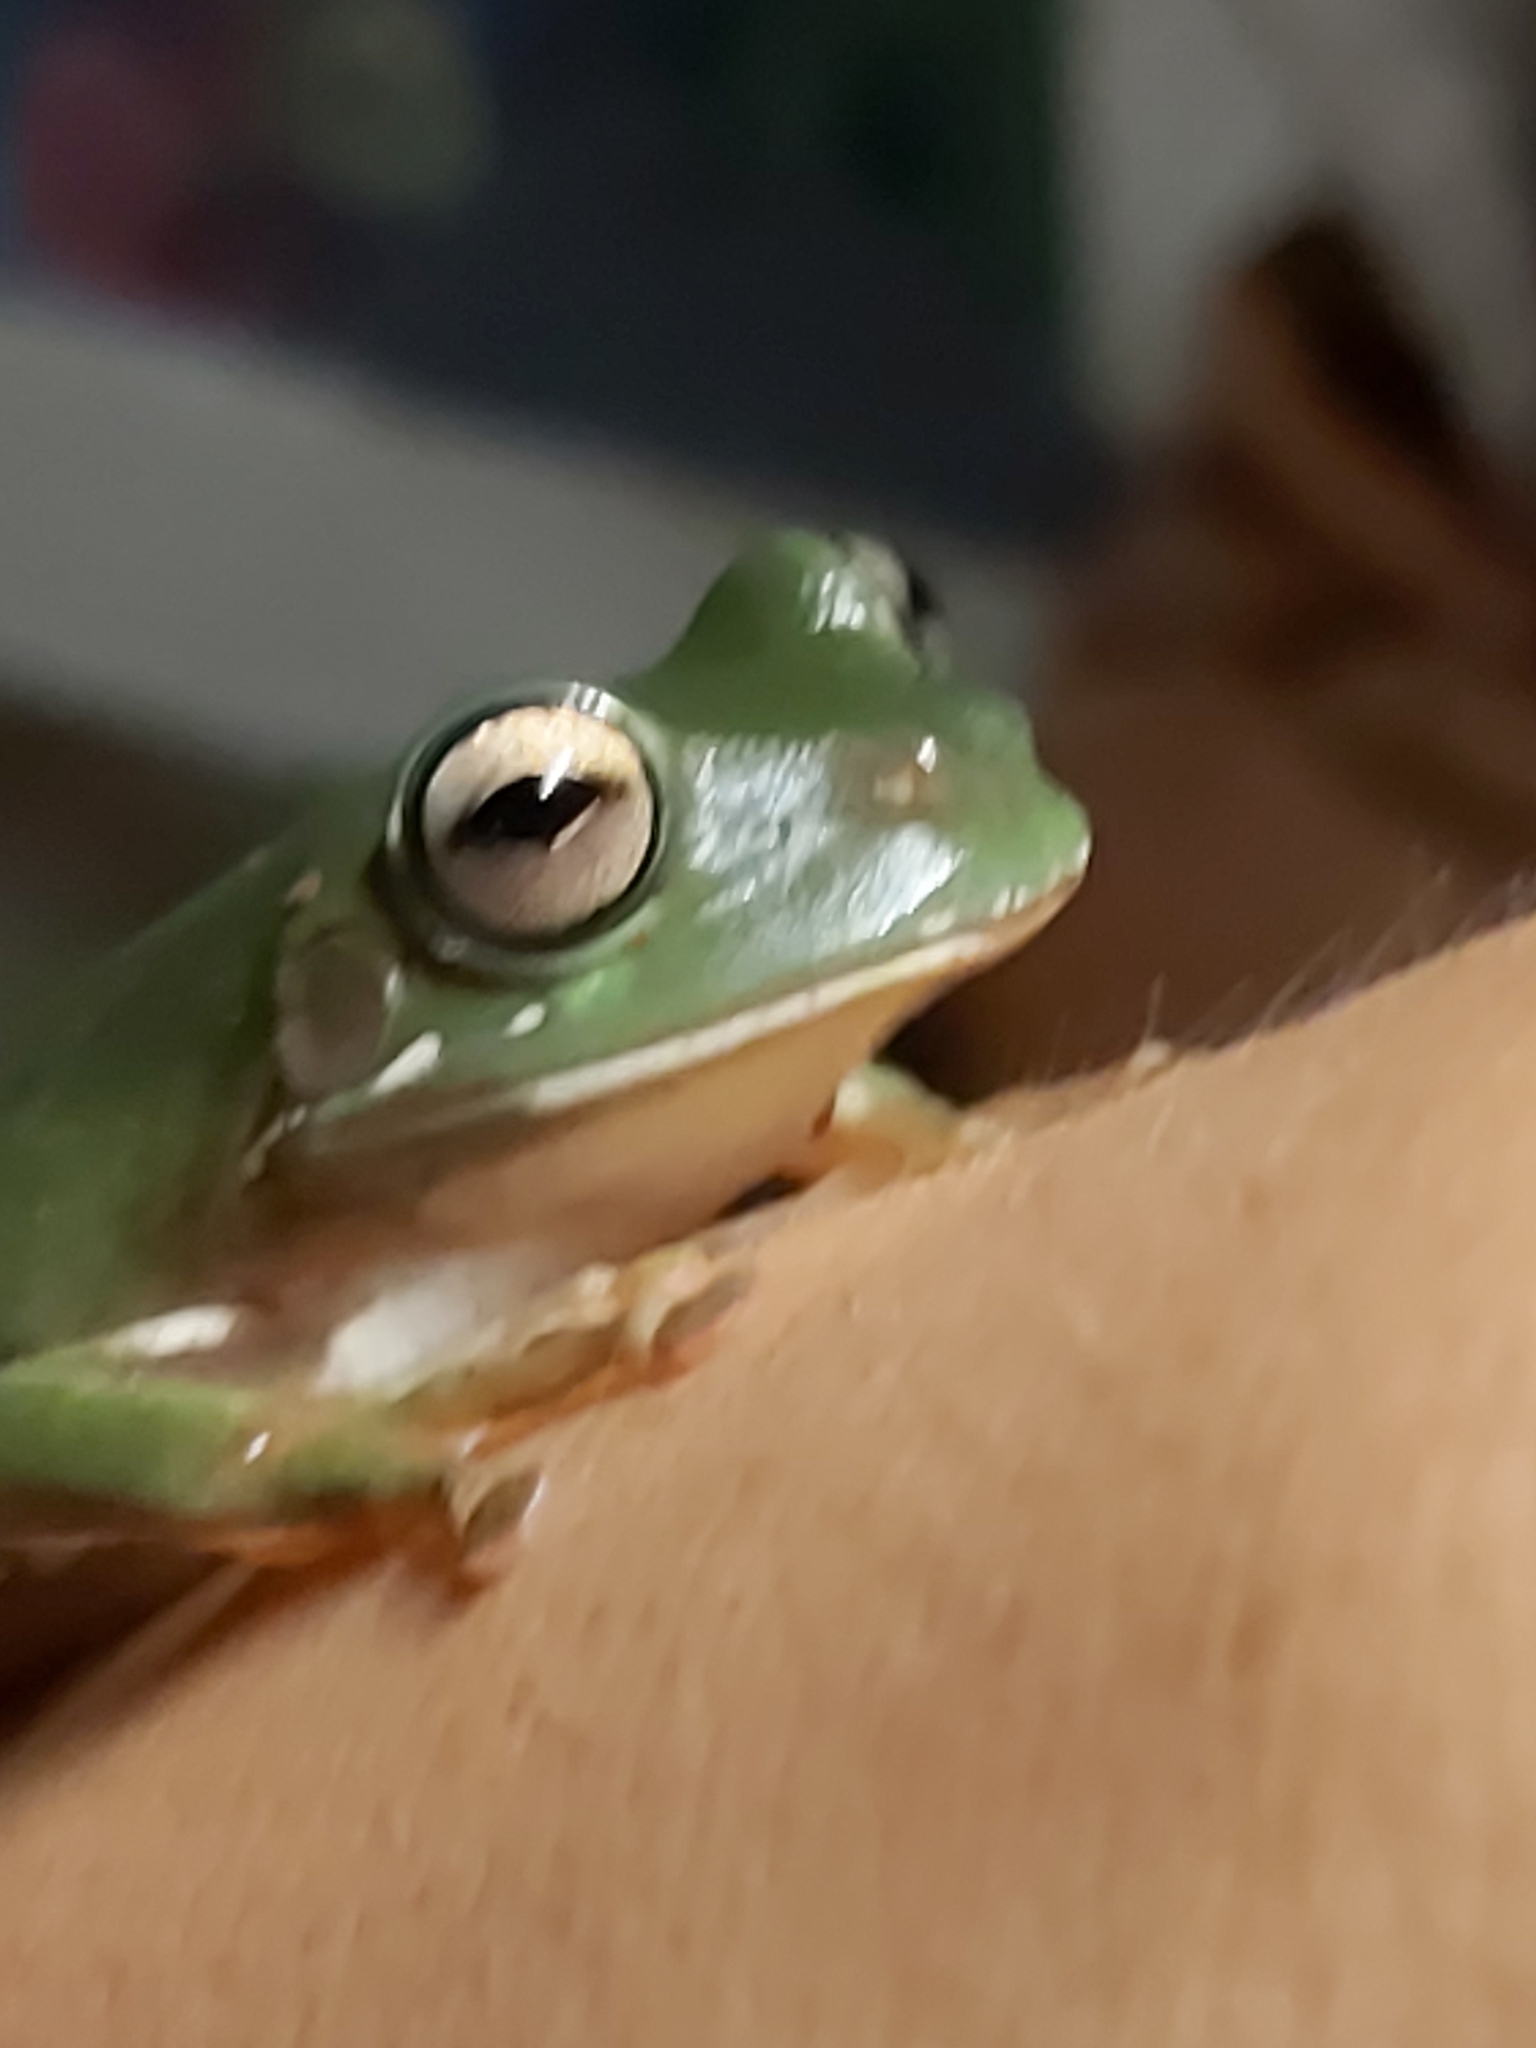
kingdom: Animalia
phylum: Chordata
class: Amphibia
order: Anura
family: Pelodryadidae
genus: Ranoidea
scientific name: Ranoidea caerulea
